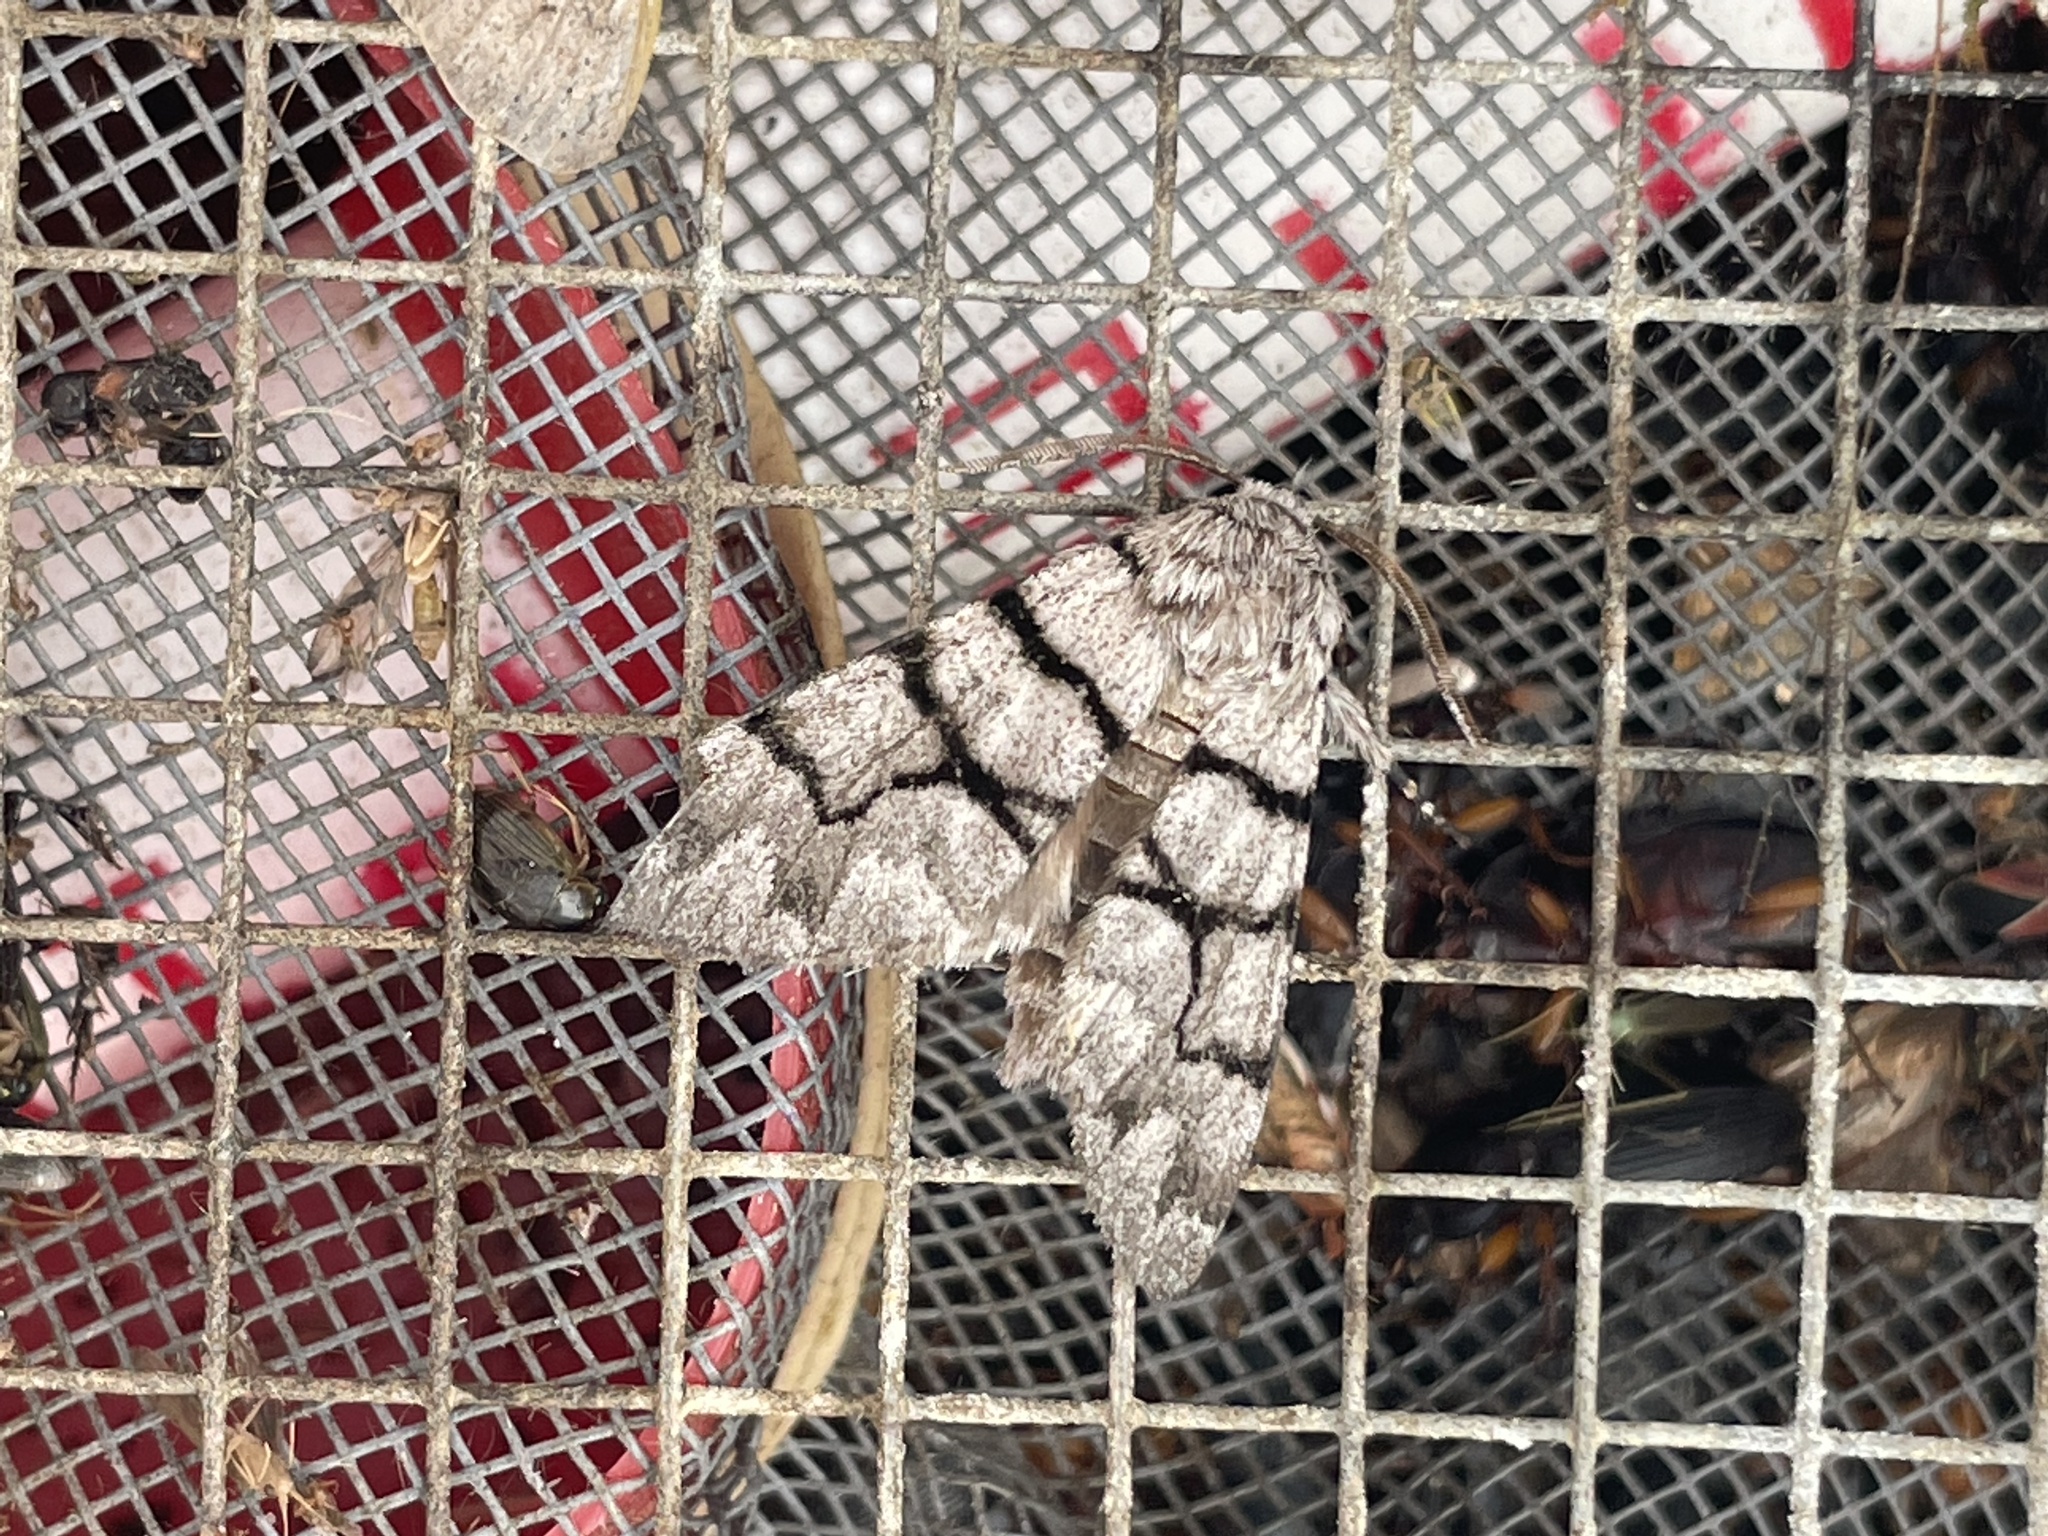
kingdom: Animalia
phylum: Arthropoda
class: Insecta
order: Lepidoptera
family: Noctuidae
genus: Panthea
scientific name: Panthea furcilla
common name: Eastern panthea moth
